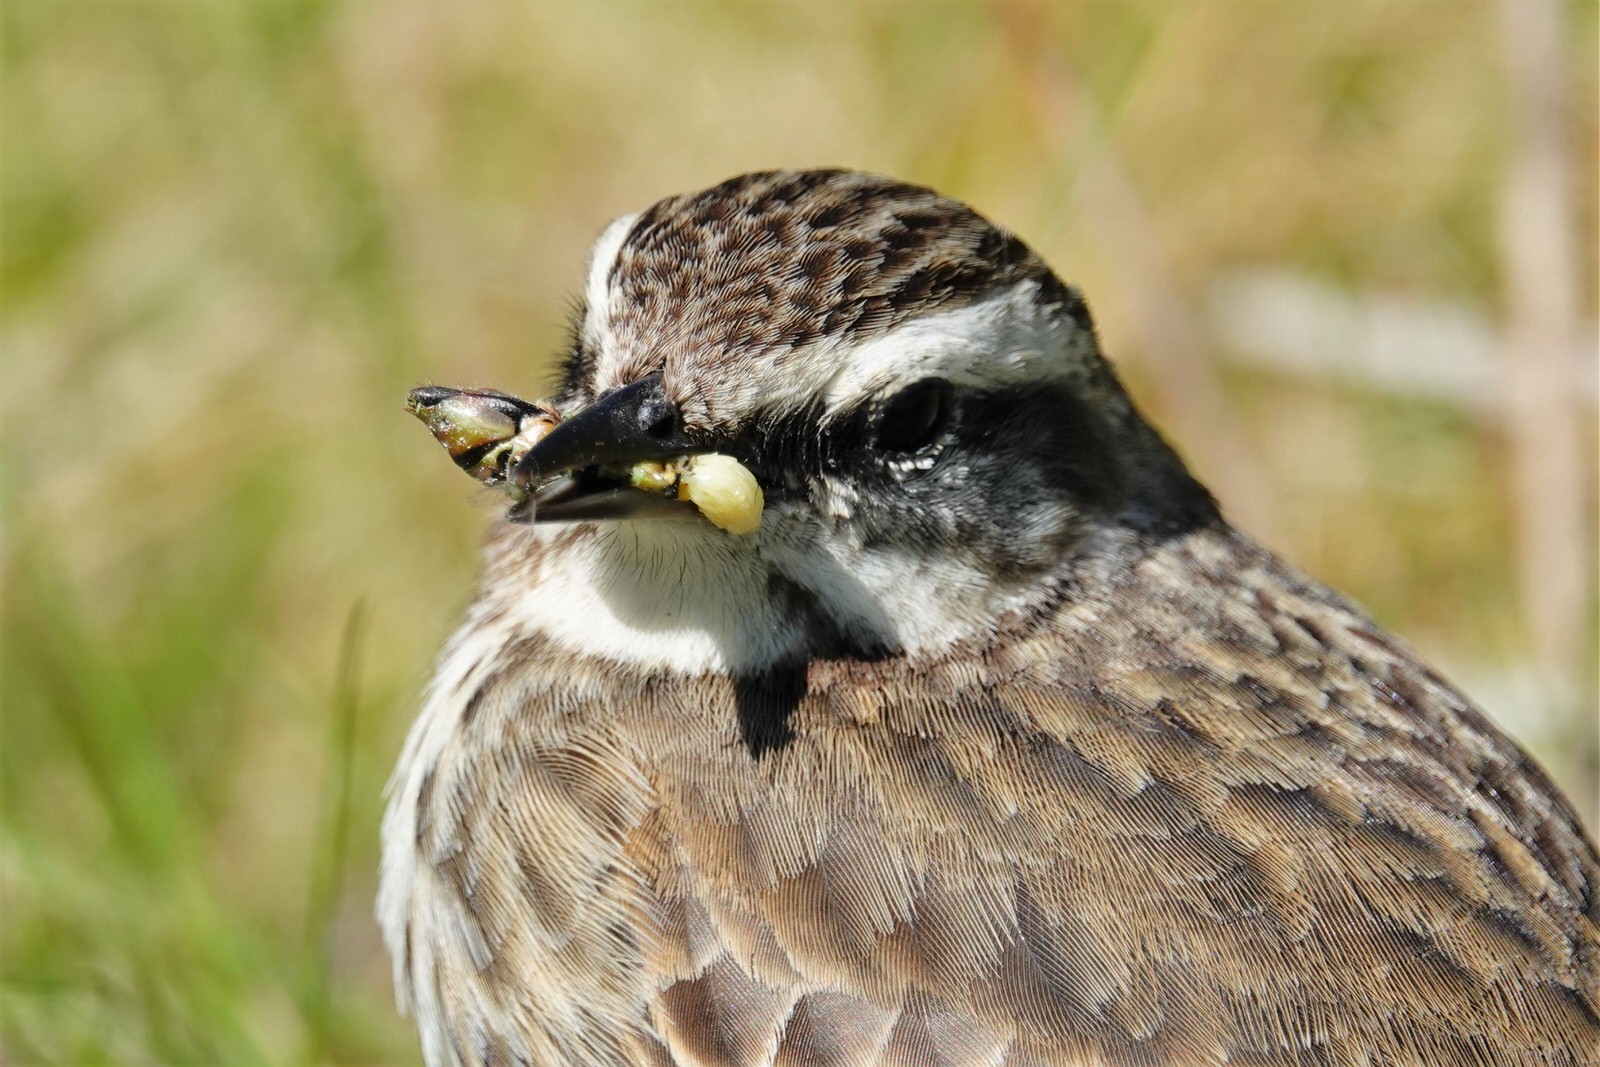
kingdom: Animalia
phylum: Chordata
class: Aves
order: Passeriformes
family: Motacillidae
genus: Anthus
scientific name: Anthus novaeseelandiae
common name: New zealand pipit
